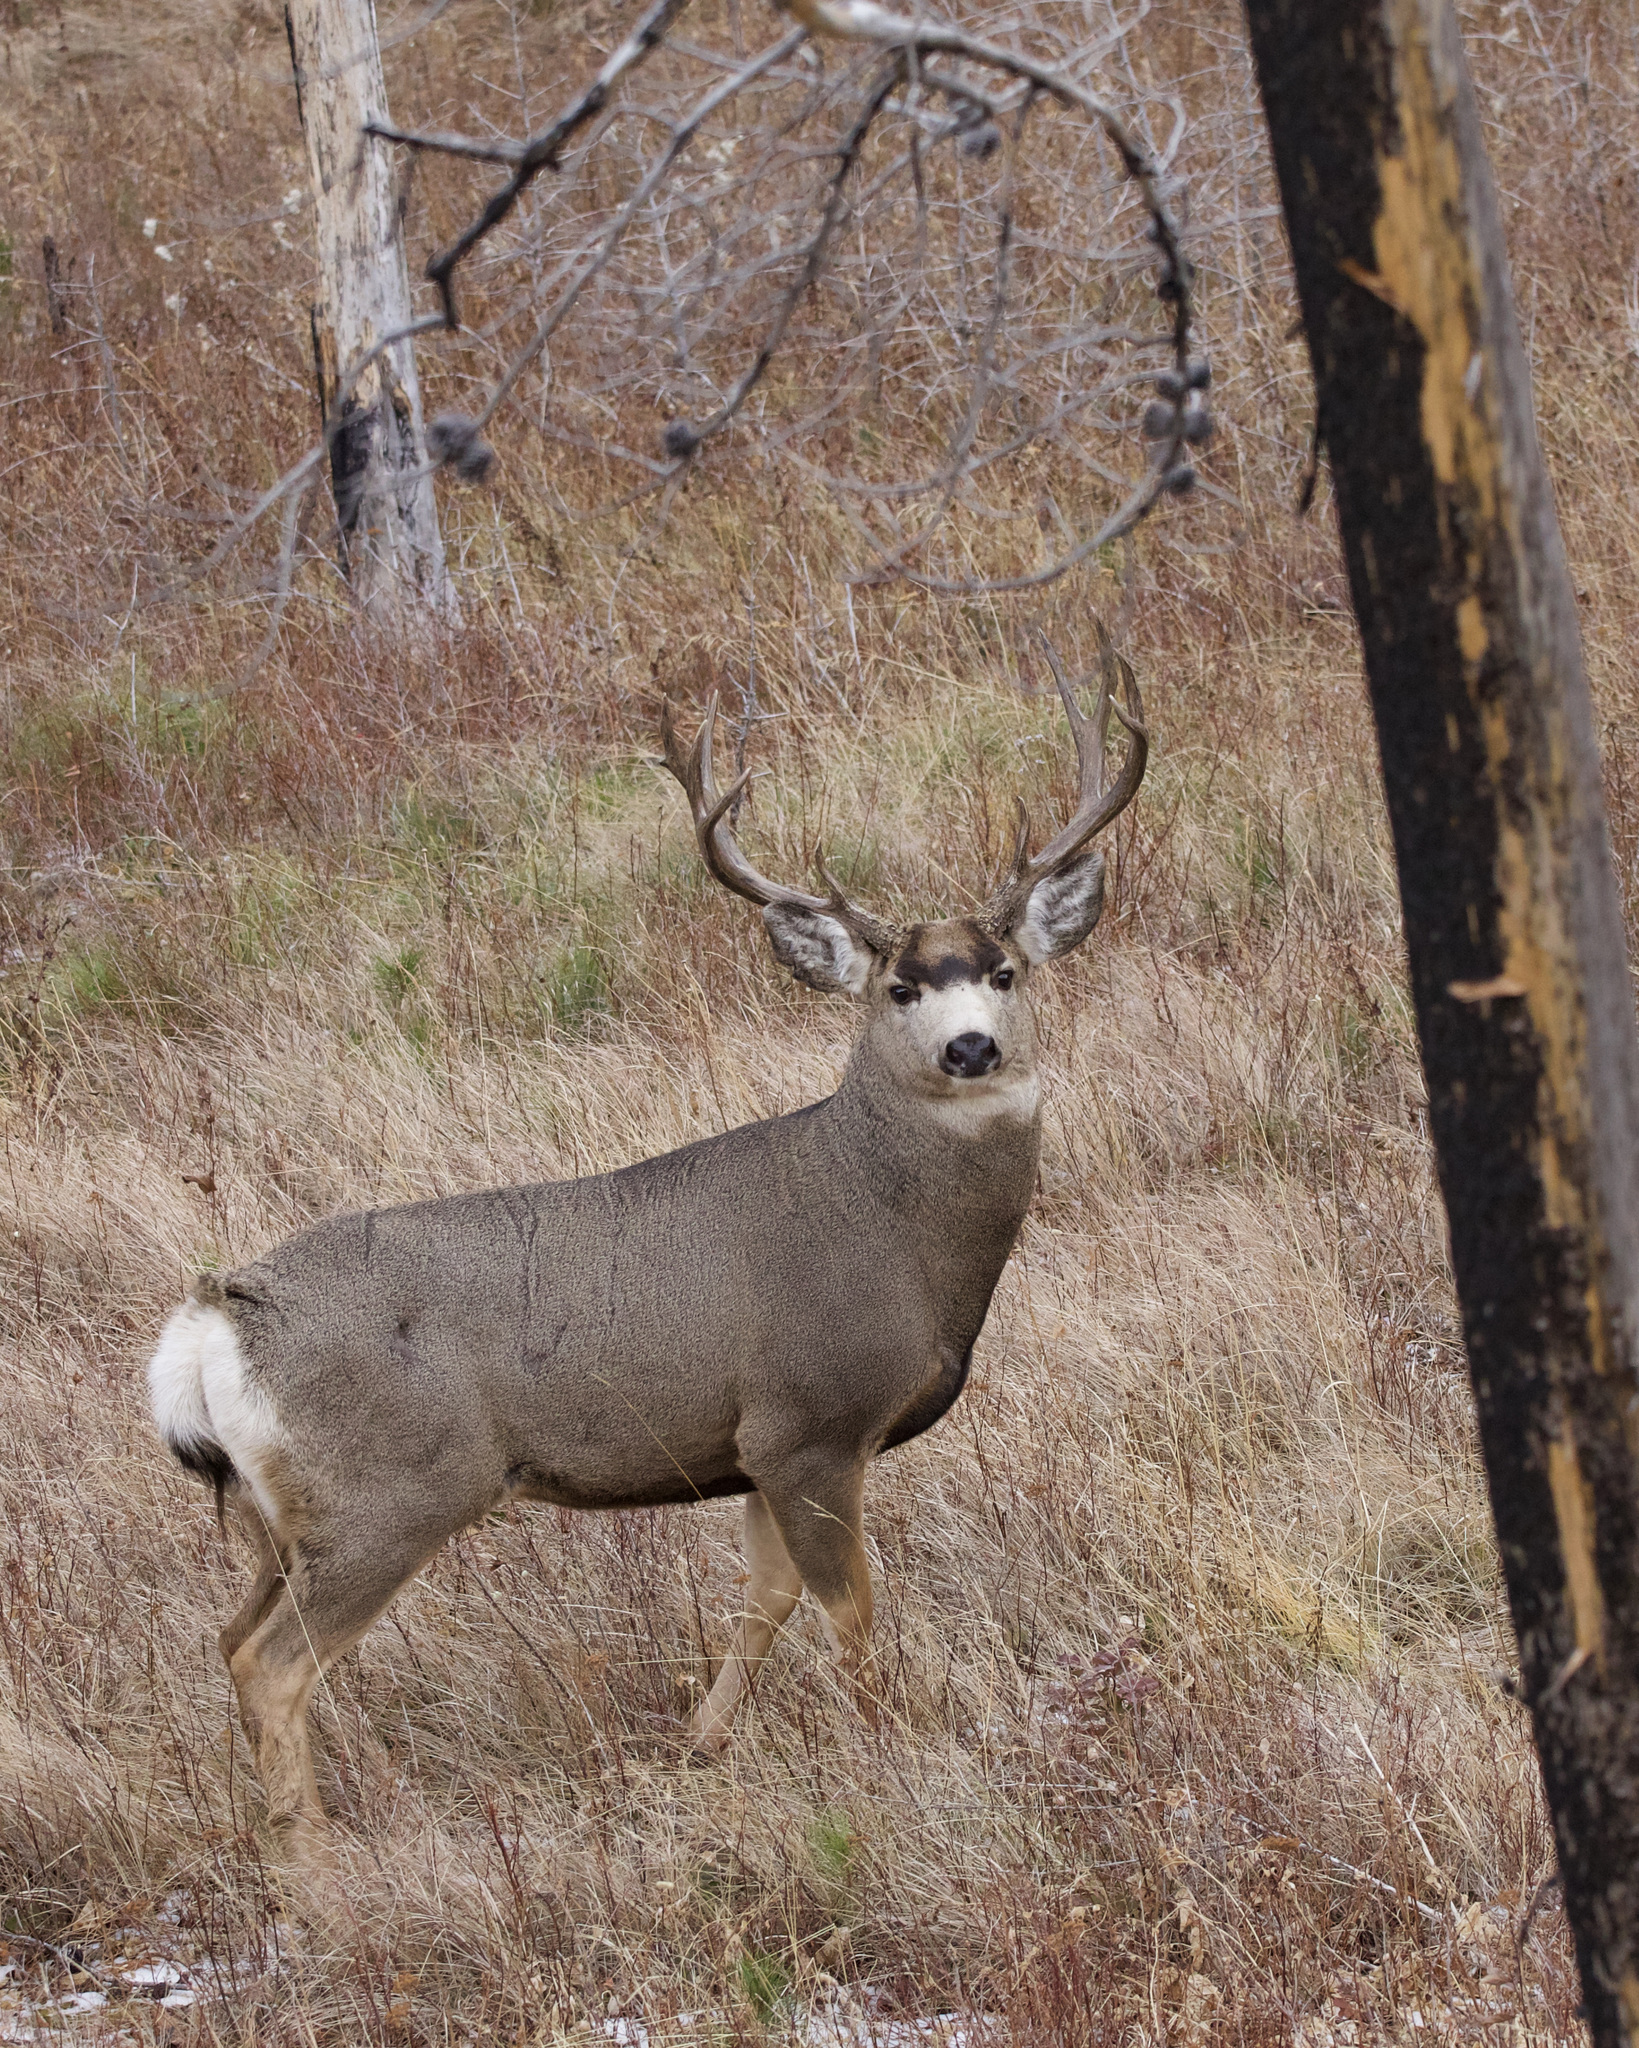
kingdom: Animalia
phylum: Chordata
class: Mammalia
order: Artiodactyla
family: Cervidae
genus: Odocoileus
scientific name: Odocoileus hemionus
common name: Mule deer
